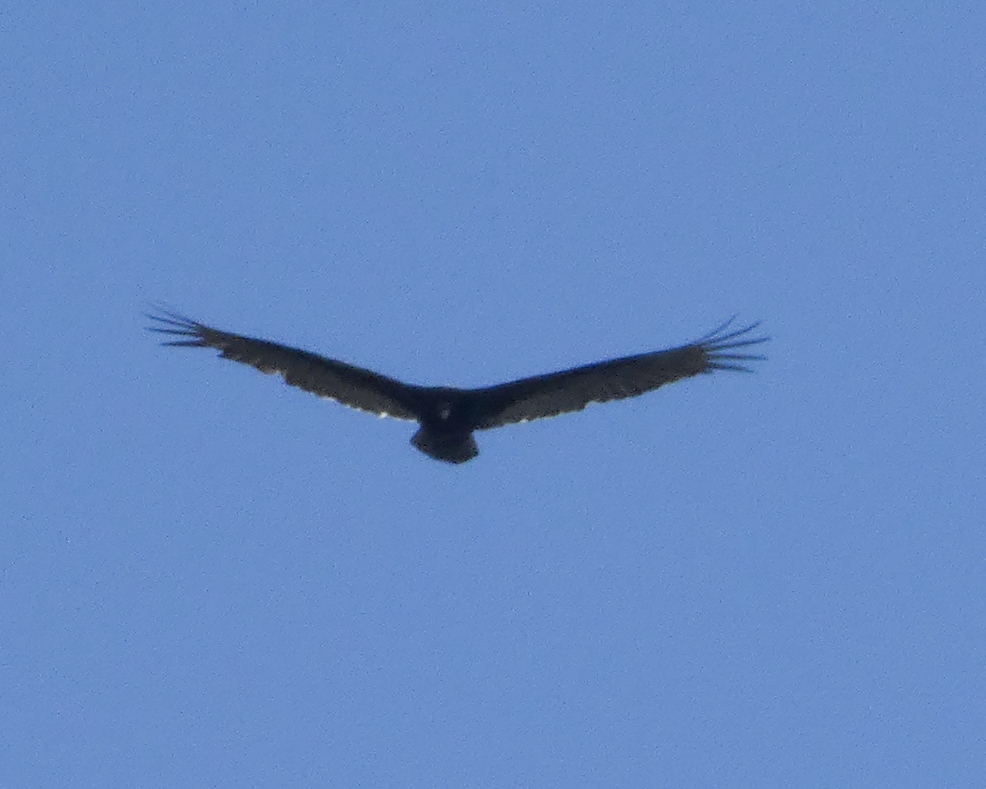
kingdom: Animalia
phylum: Chordata
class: Aves
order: Accipitriformes
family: Cathartidae
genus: Cathartes
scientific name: Cathartes aura
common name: Turkey vulture
